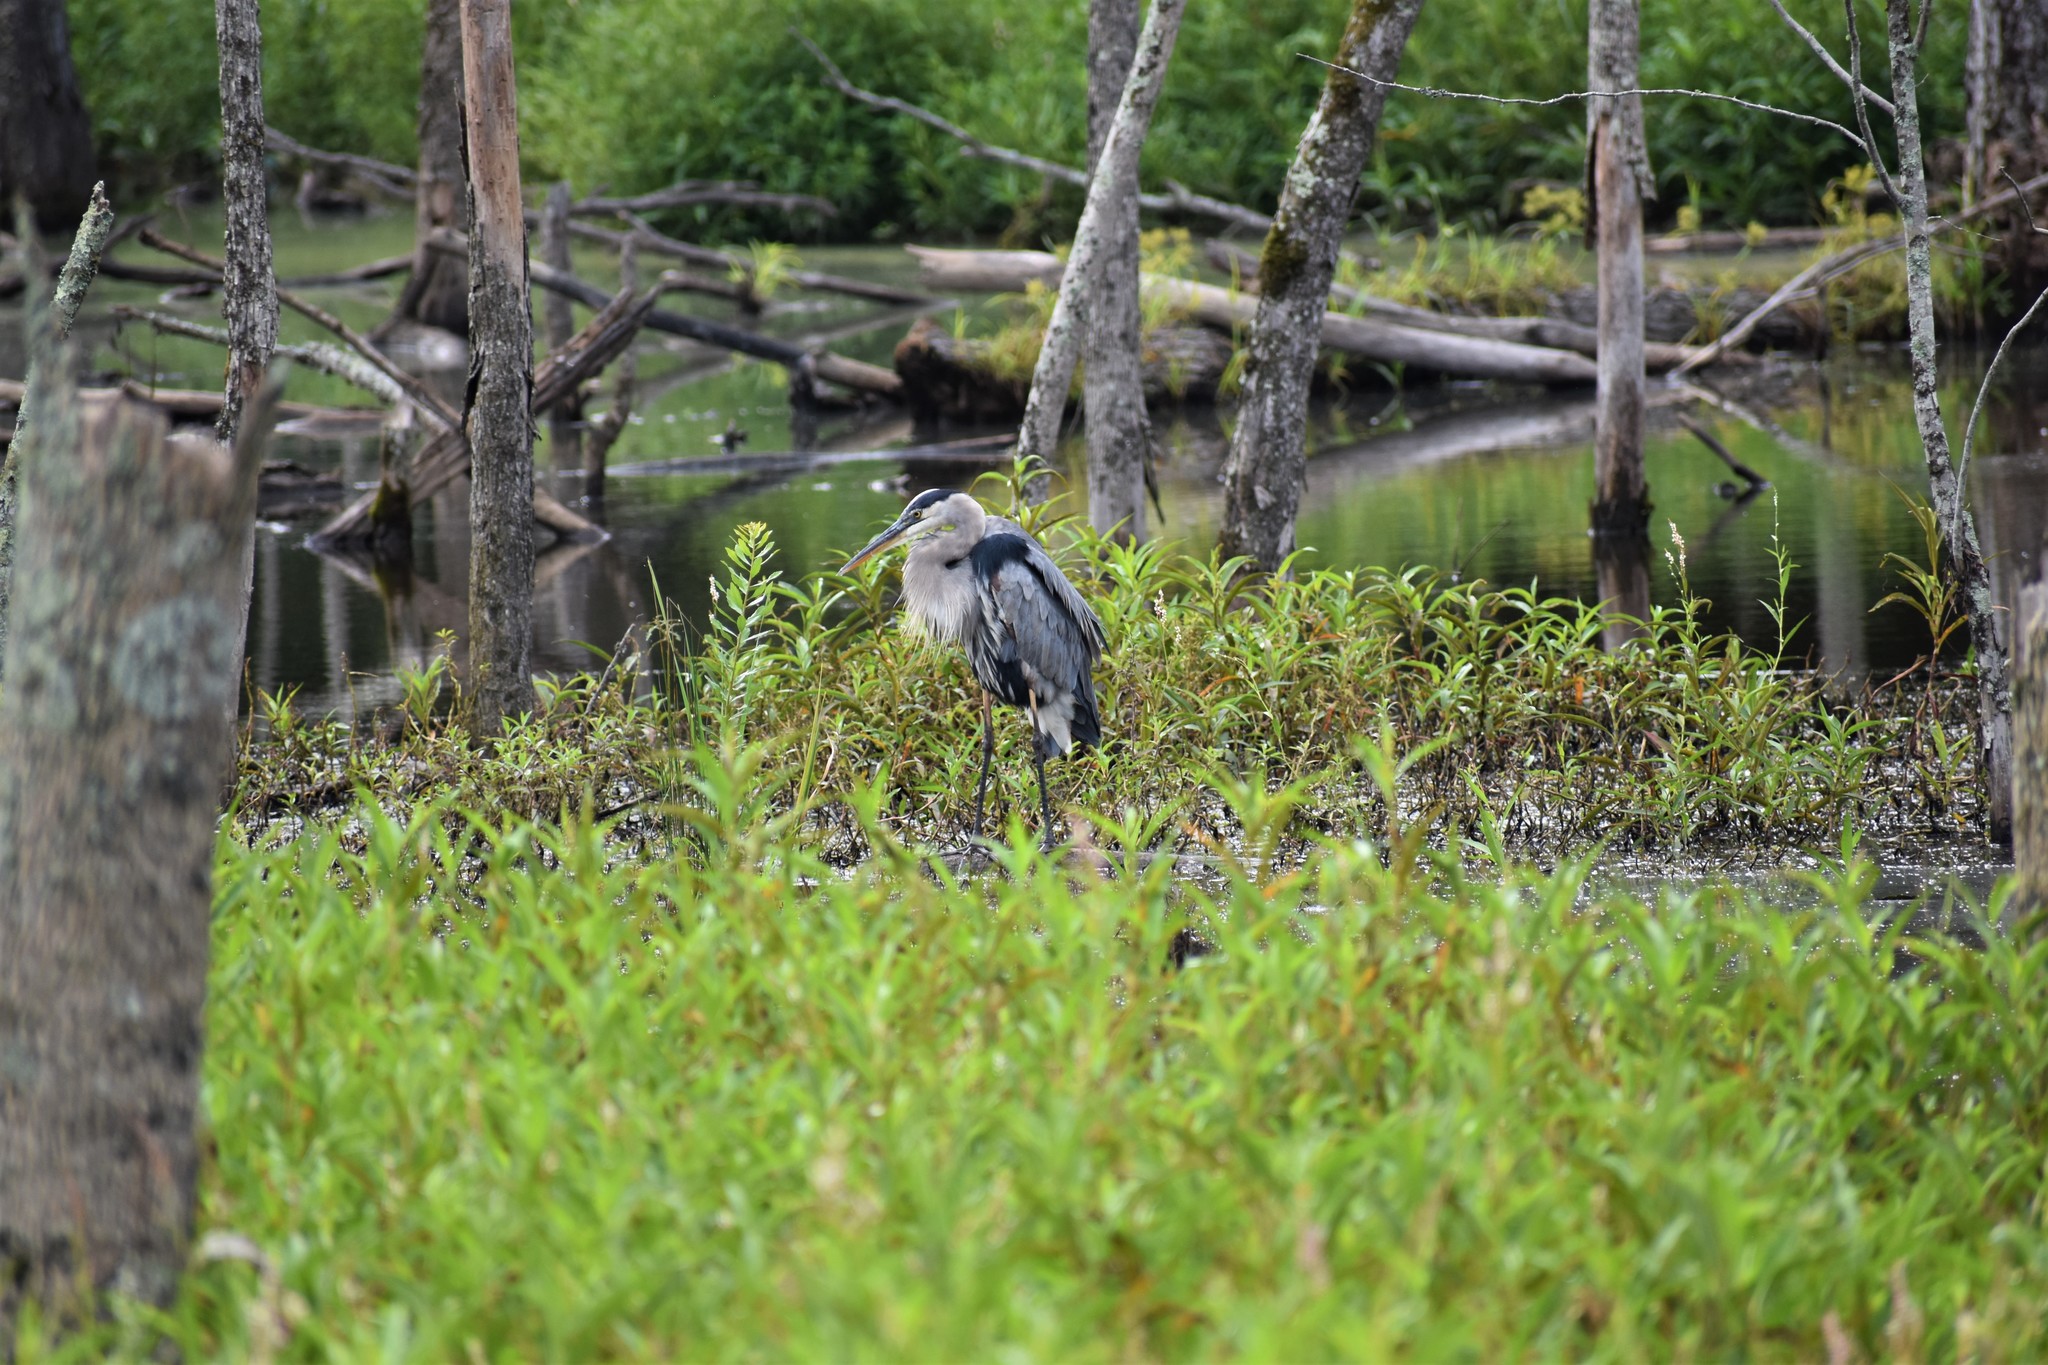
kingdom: Animalia
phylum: Chordata
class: Aves
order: Pelecaniformes
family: Ardeidae
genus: Ardea
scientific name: Ardea herodias
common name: Great blue heron
